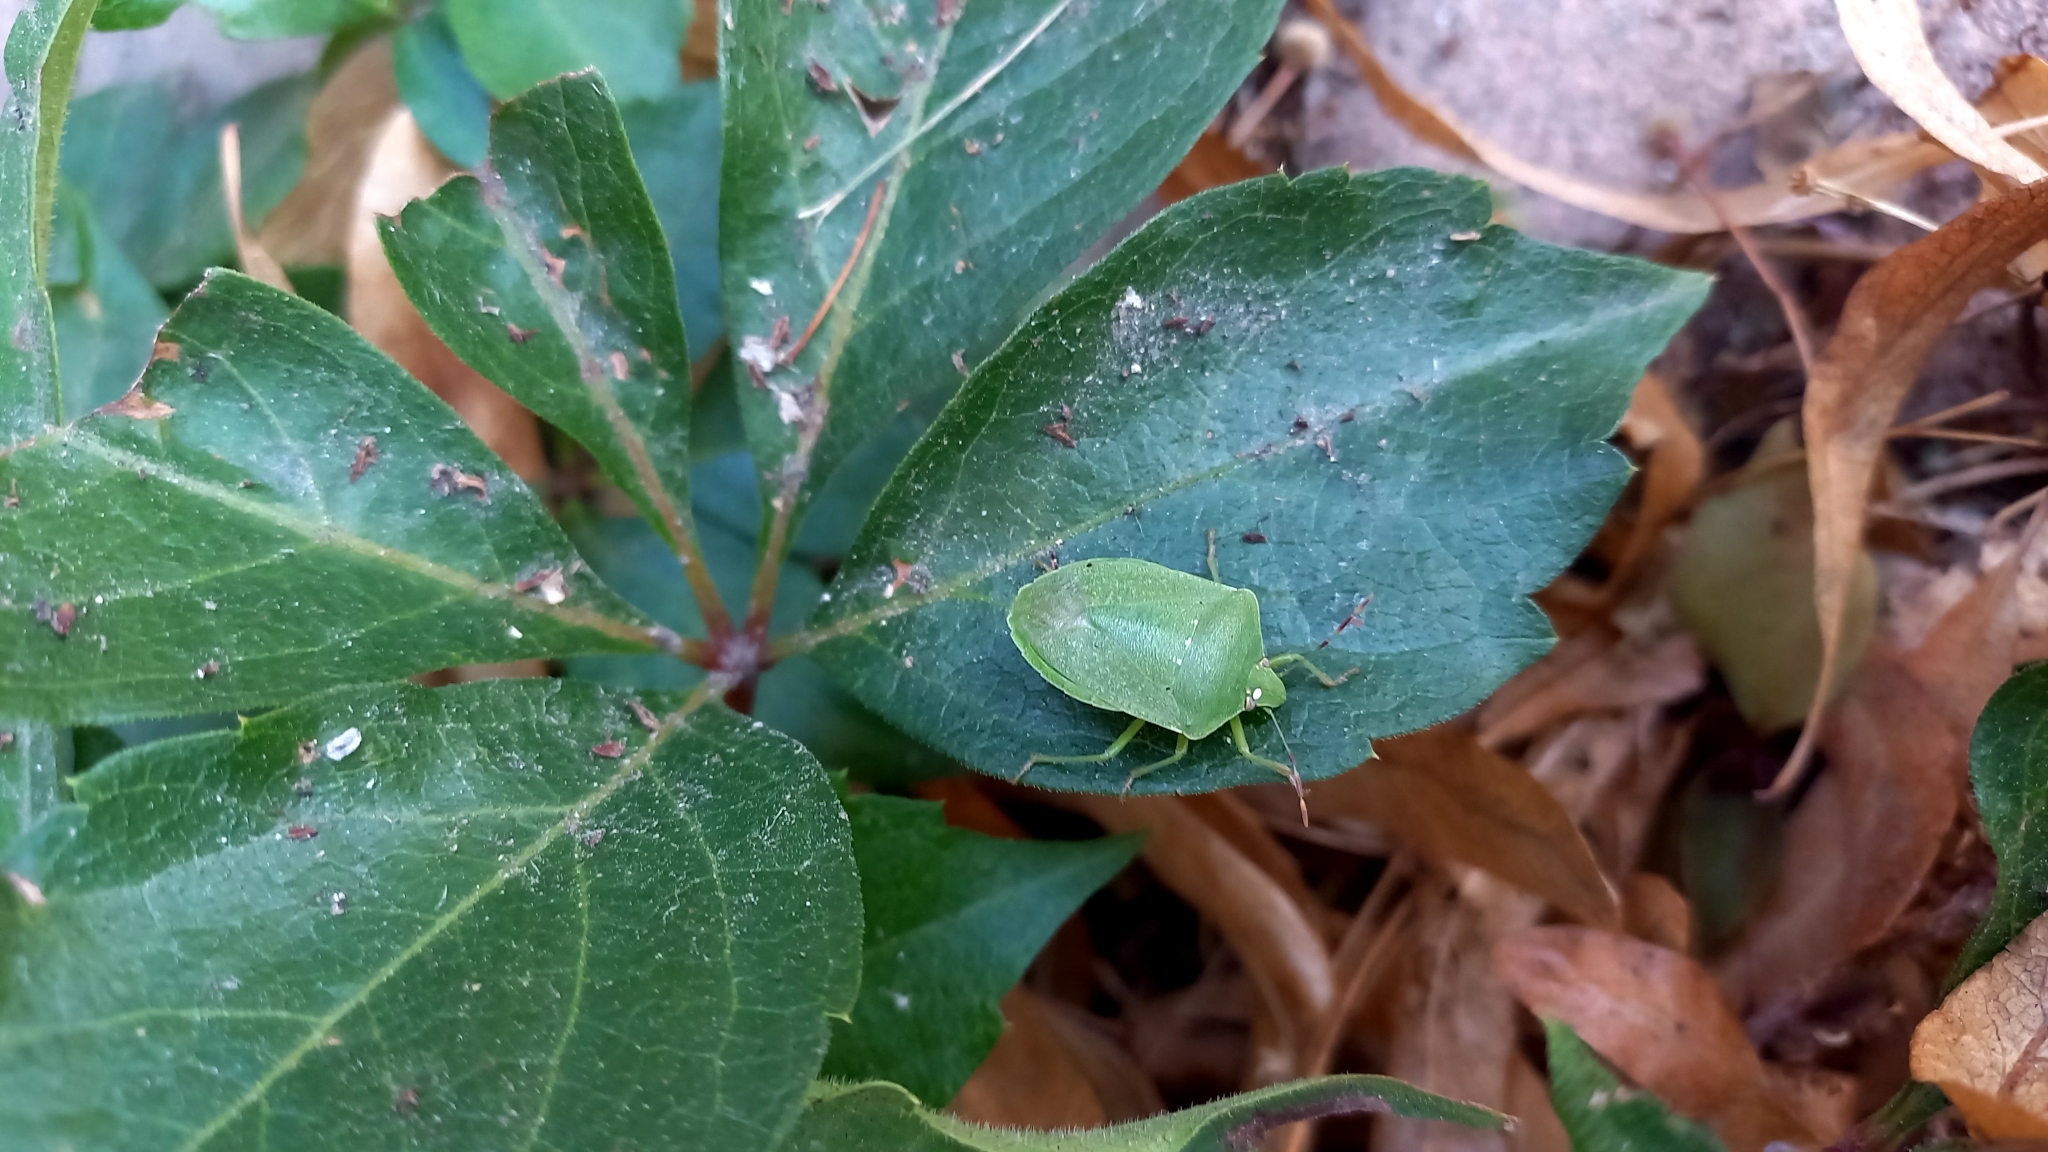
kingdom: Animalia
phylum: Arthropoda
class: Insecta
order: Hemiptera
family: Pentatomidae
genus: Nezara
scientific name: Nezara viridula
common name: Southern green stink bug
